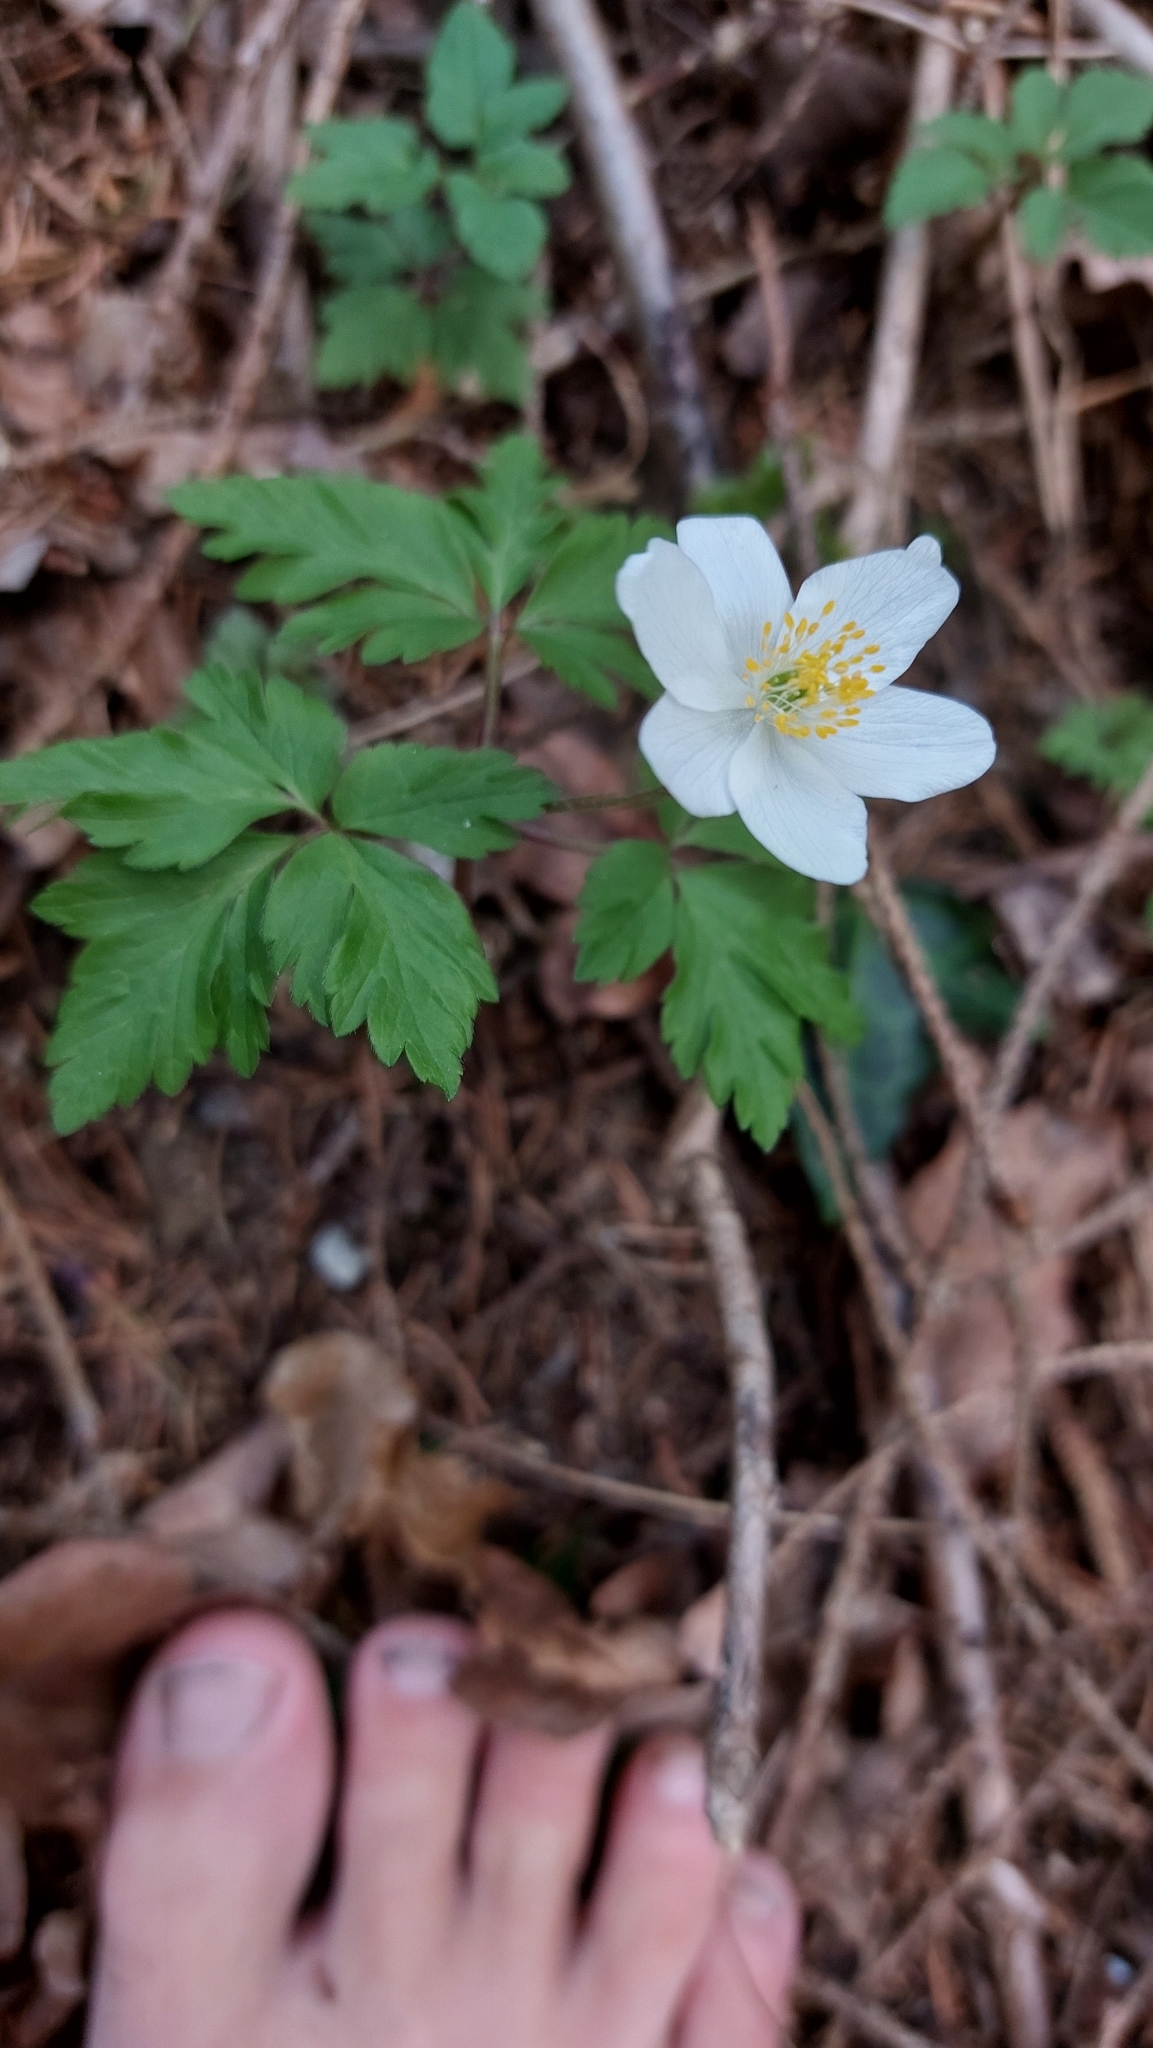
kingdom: Plantae
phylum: Tracheophyta
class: Magnoliopsida
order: Ranunculales
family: Ranunculaceae
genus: Anemone
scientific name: Anemone nemorosa
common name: Wood anemone
